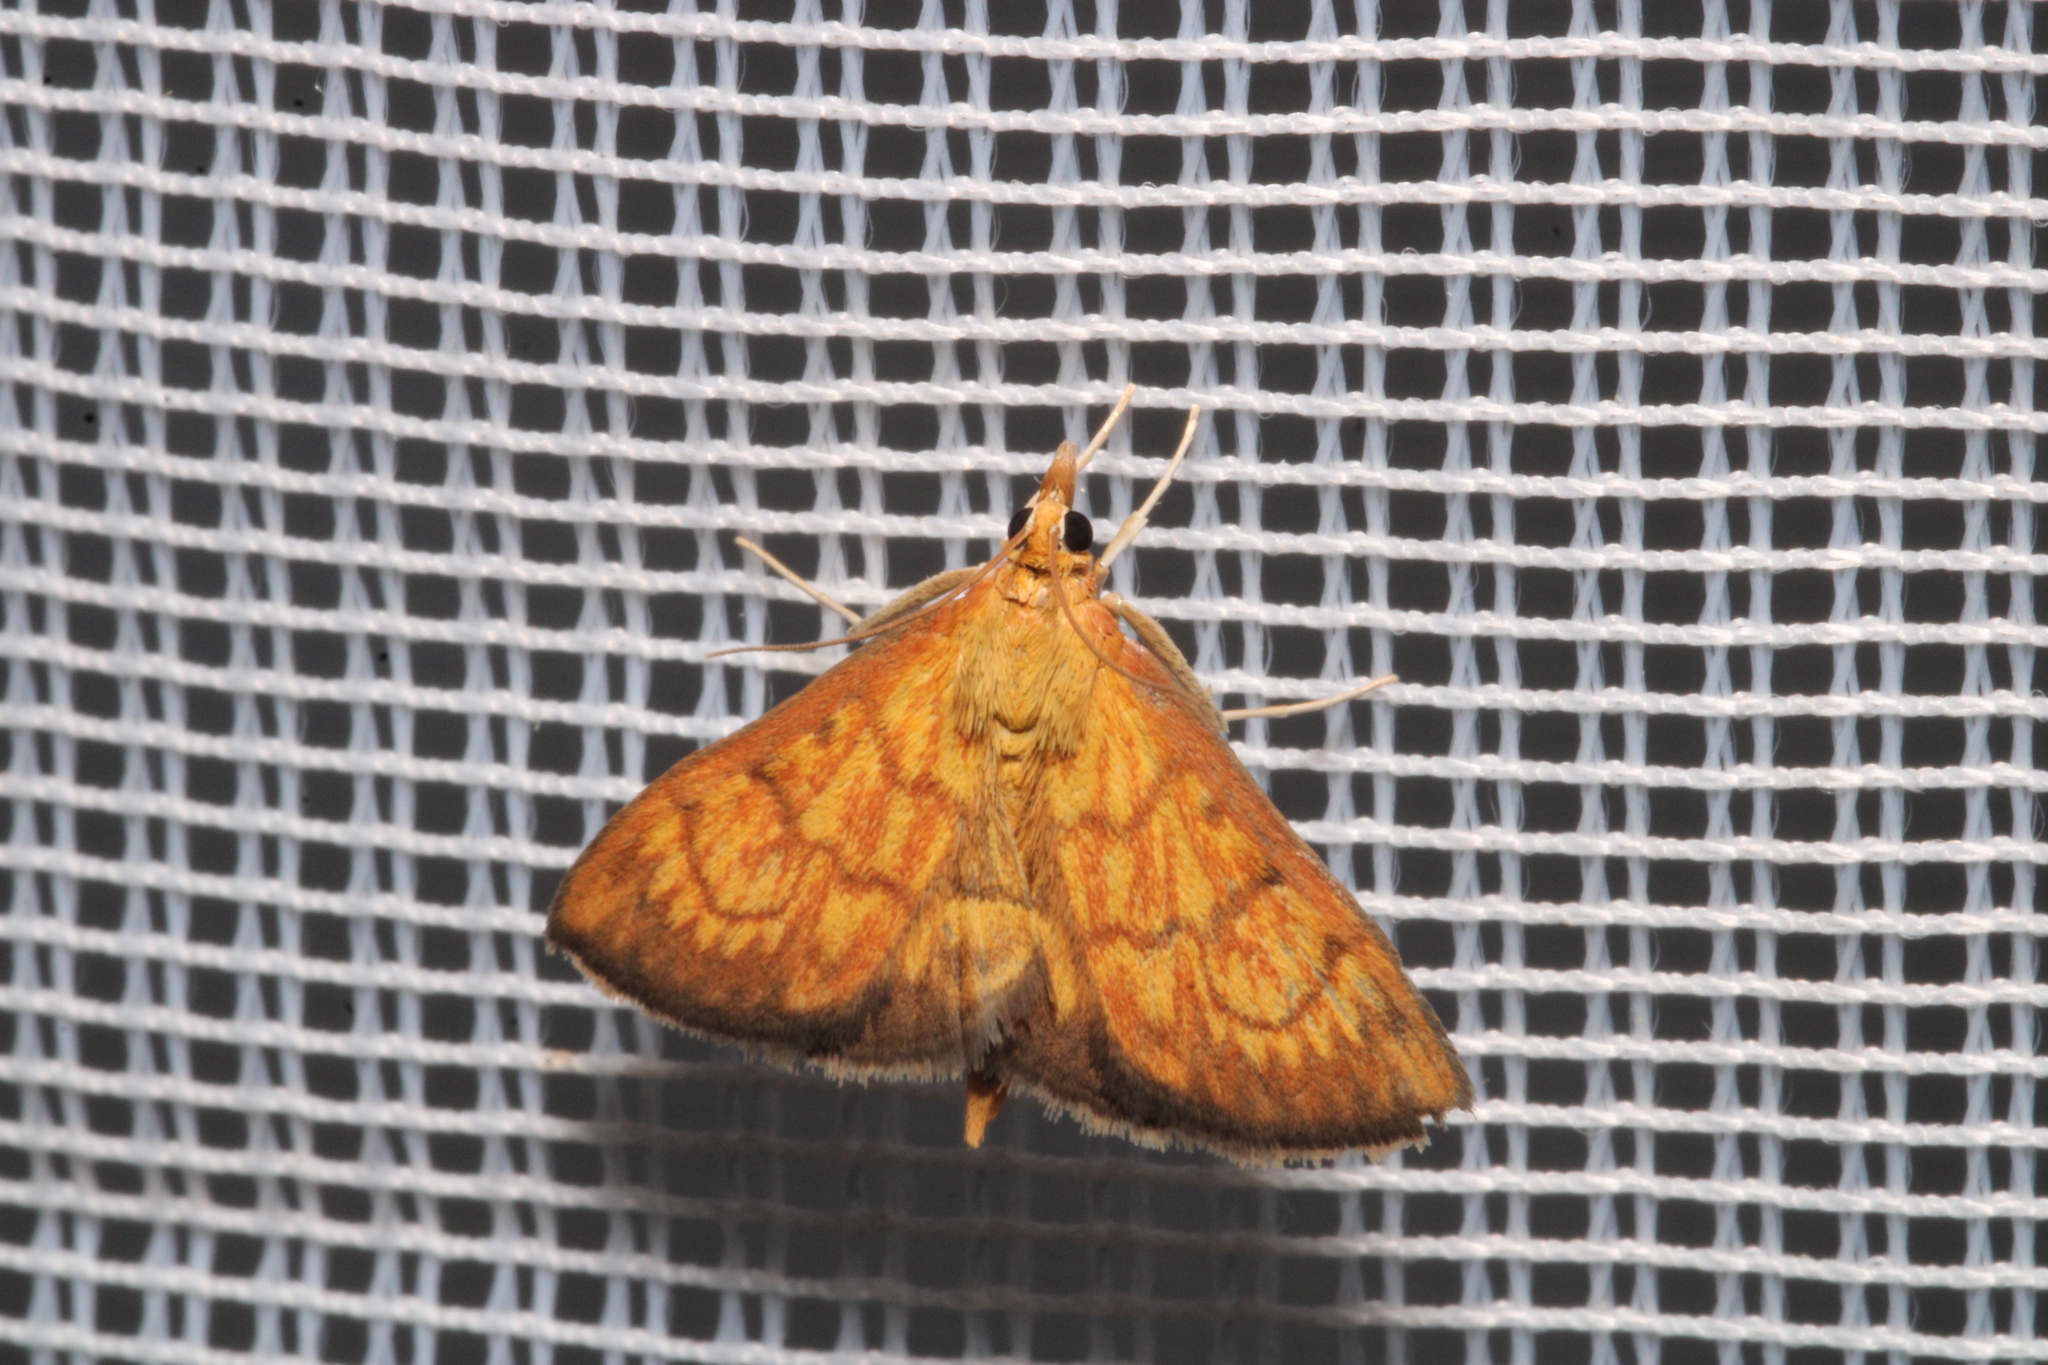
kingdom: Animalia
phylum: Arthropoda
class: Insecta
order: Lepidoptera
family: Crambidae
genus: Ecpyrrhorrhoe
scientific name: Ecpyrrhorrhoe rubiginalis
